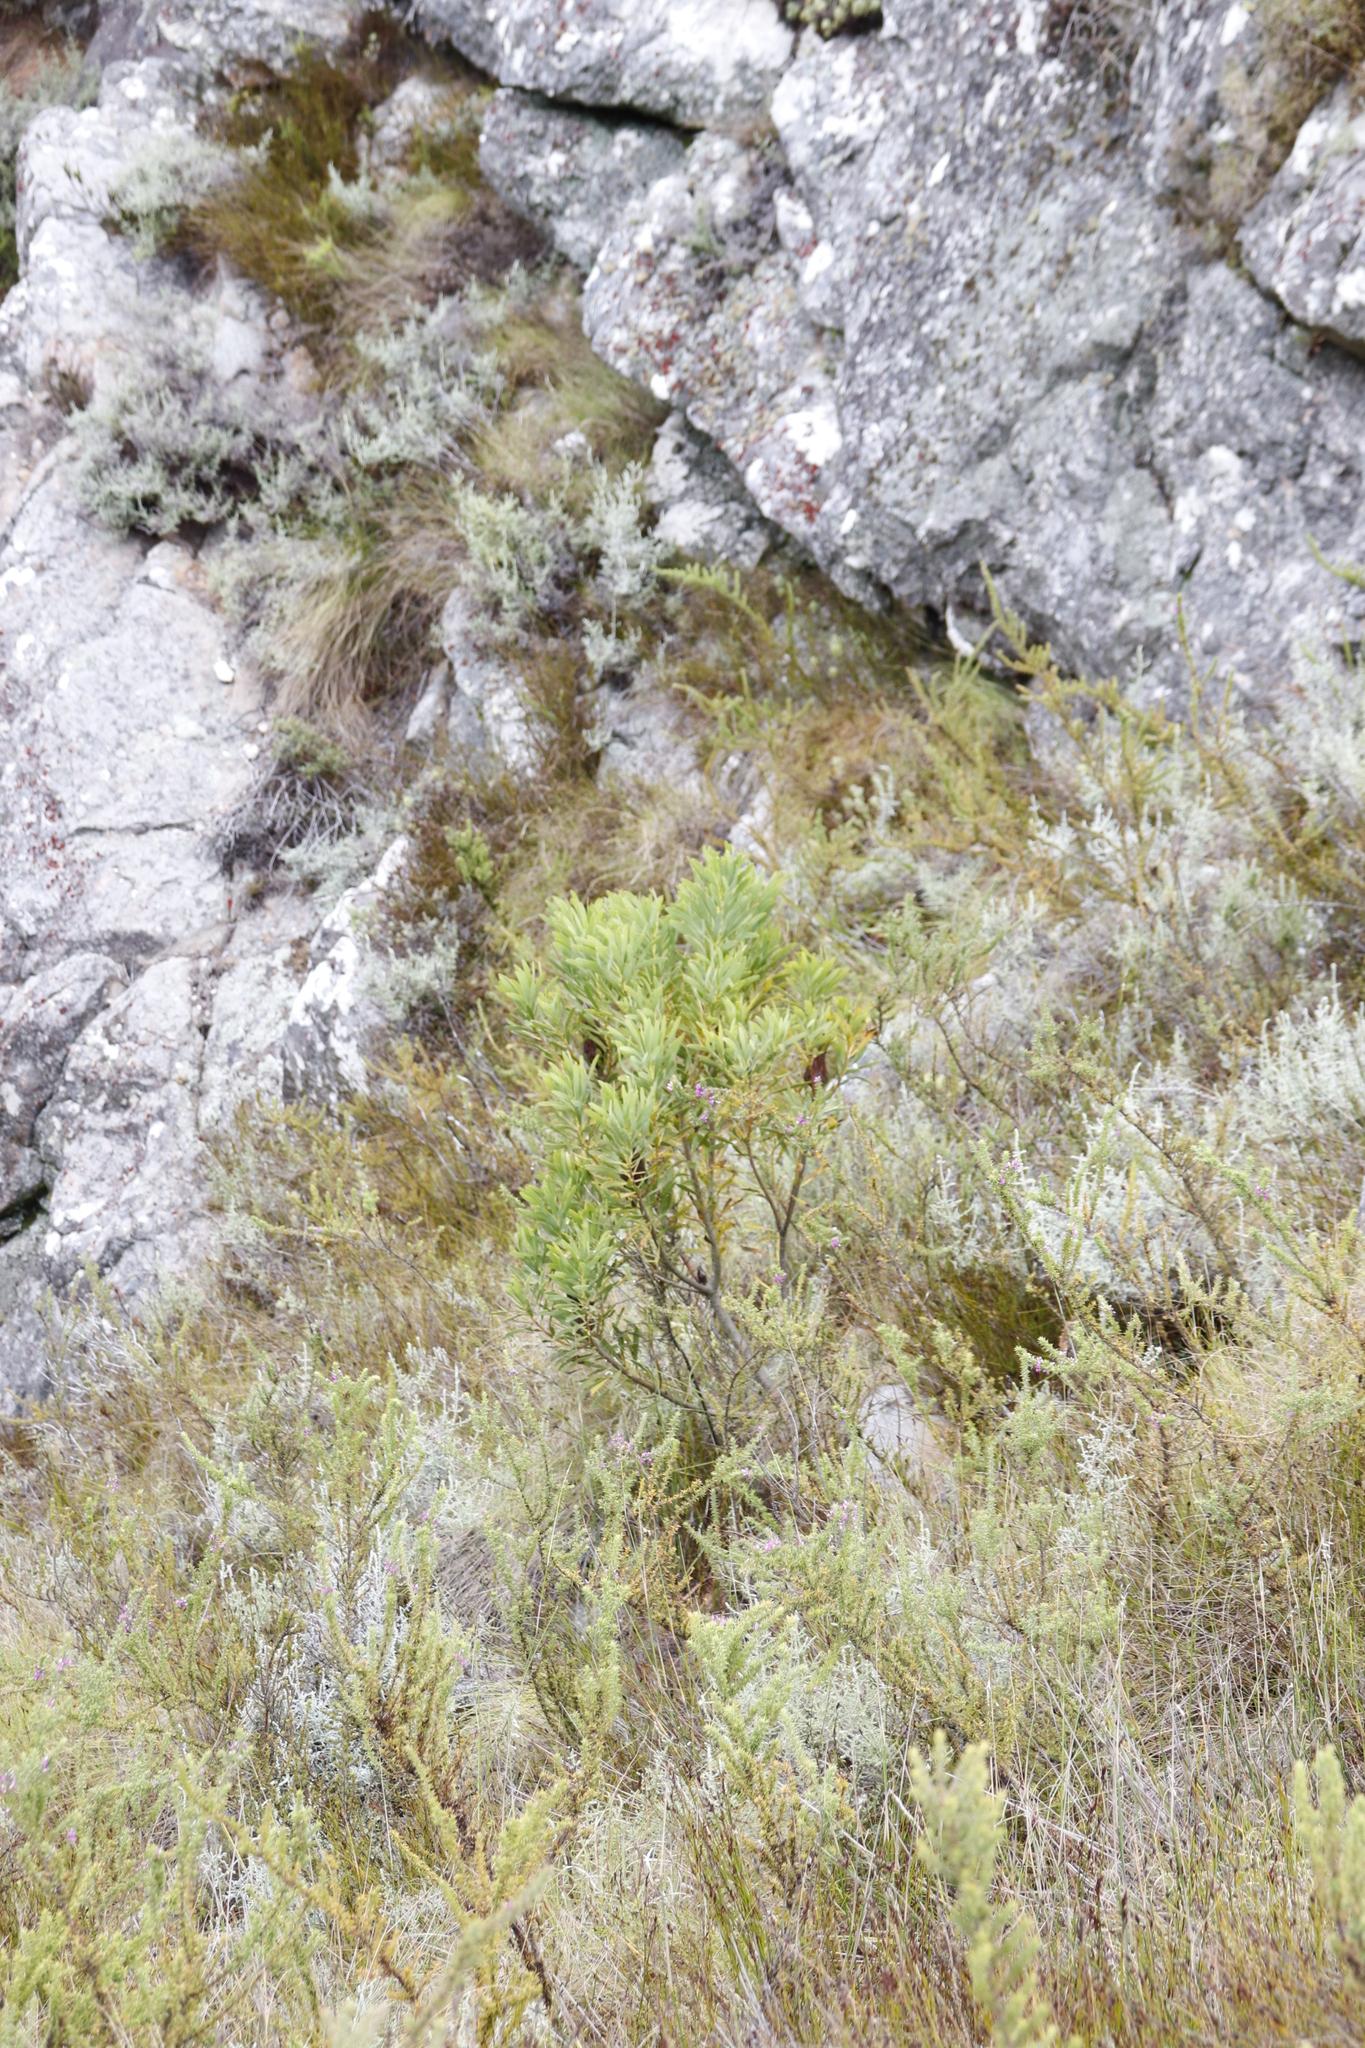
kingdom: Plantae
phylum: Tracheophyta
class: Magnoliopsida
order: Proteales
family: Proteaceae
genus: Protea
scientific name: Protea repens
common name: Sugarbush
